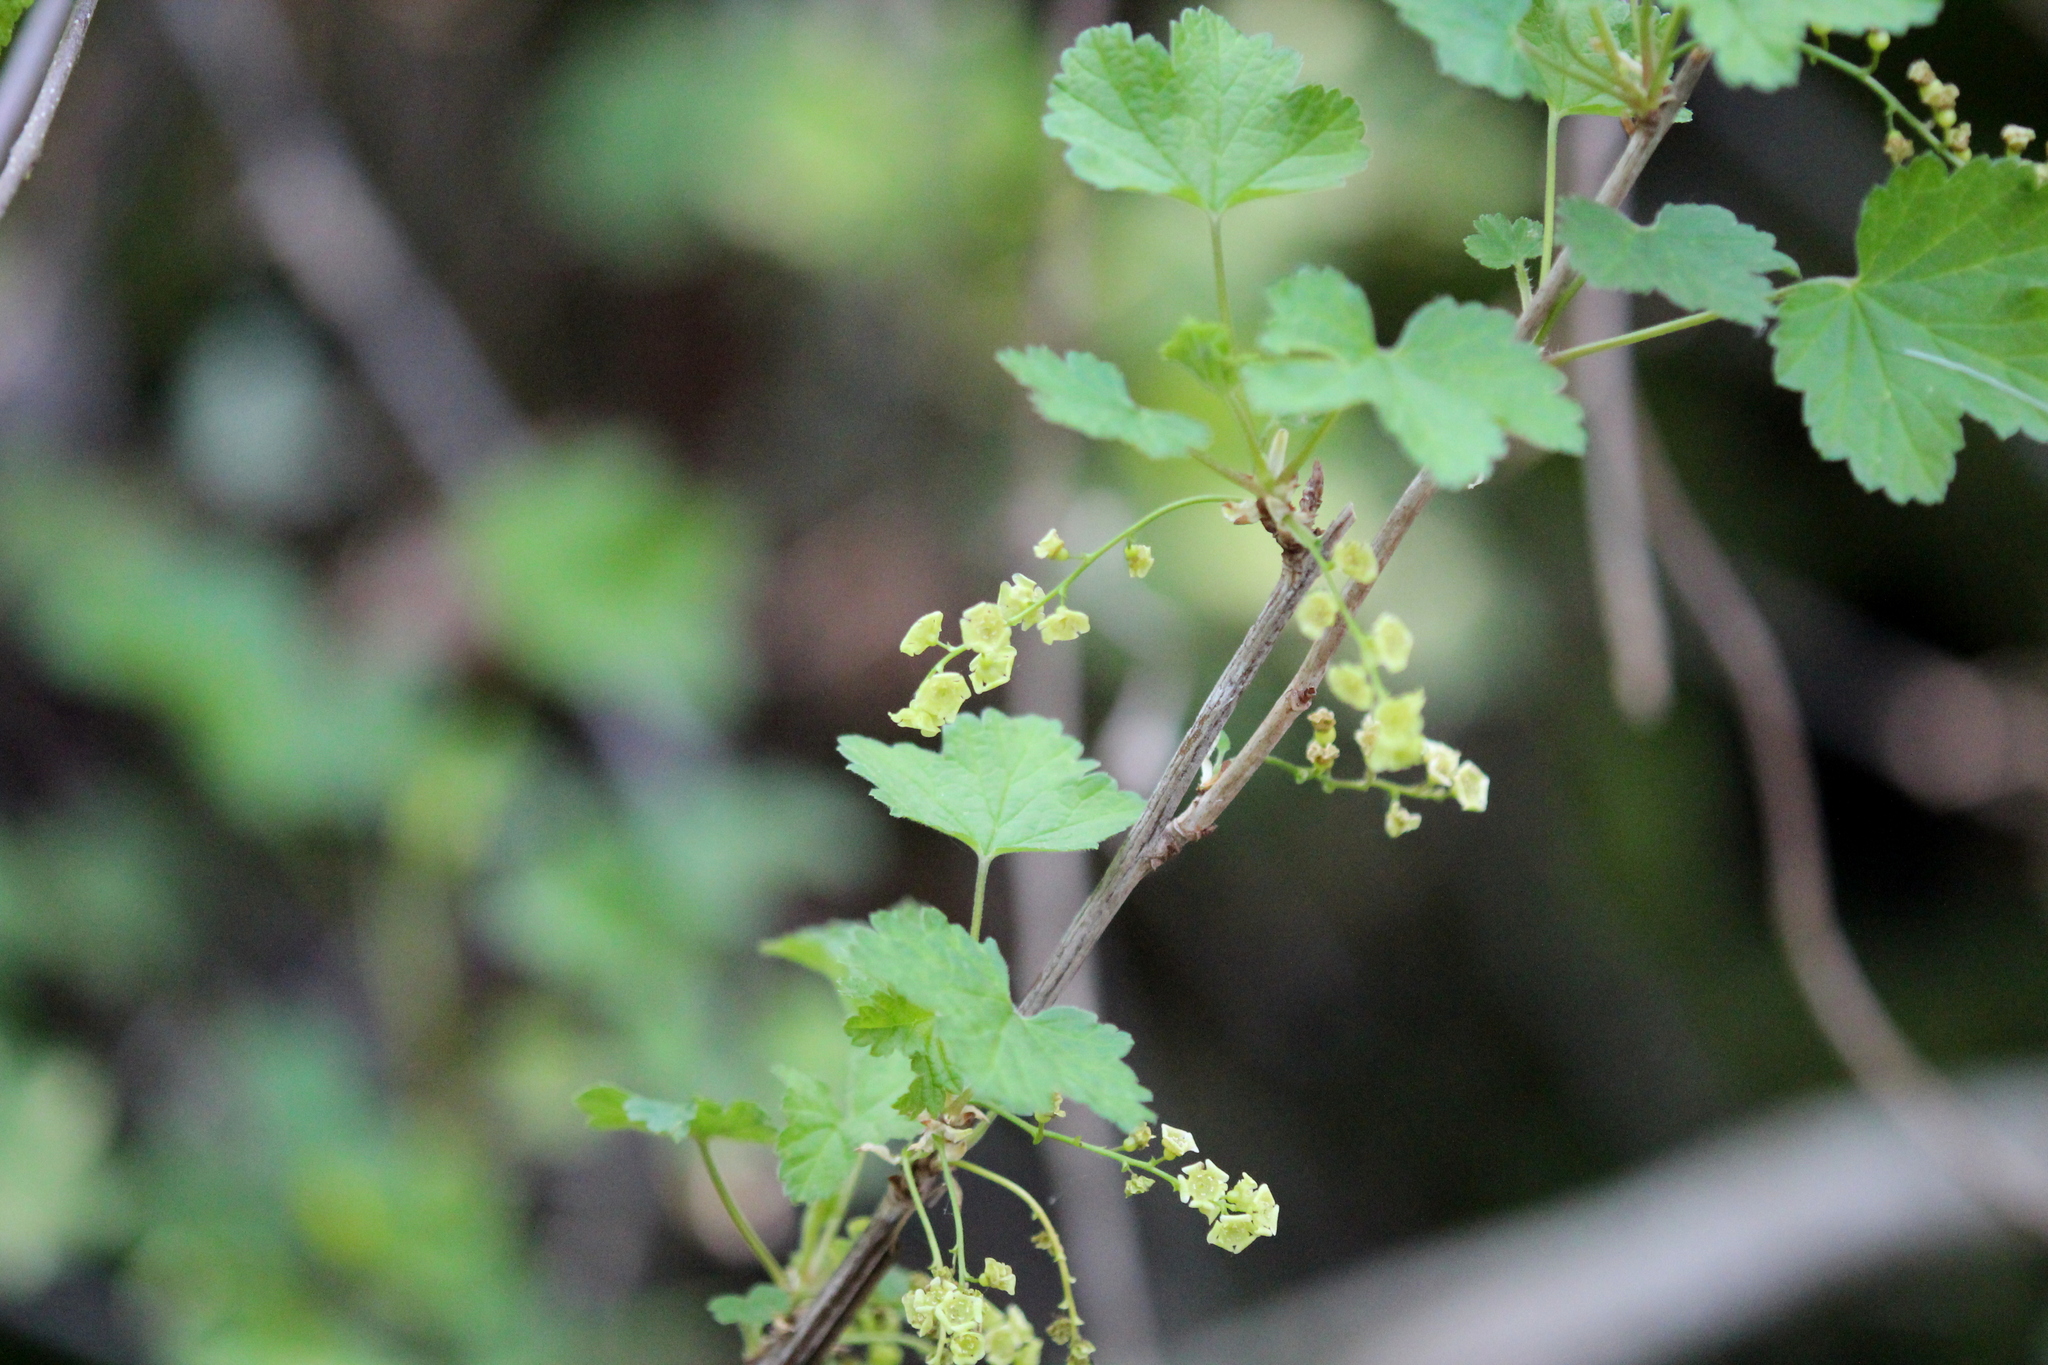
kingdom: Plantae
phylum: Tracheophyta
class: Magnoliopsida
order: Saxifragales
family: Grossulariaceae
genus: Ribes
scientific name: Ribes rubrum
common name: Red currant
